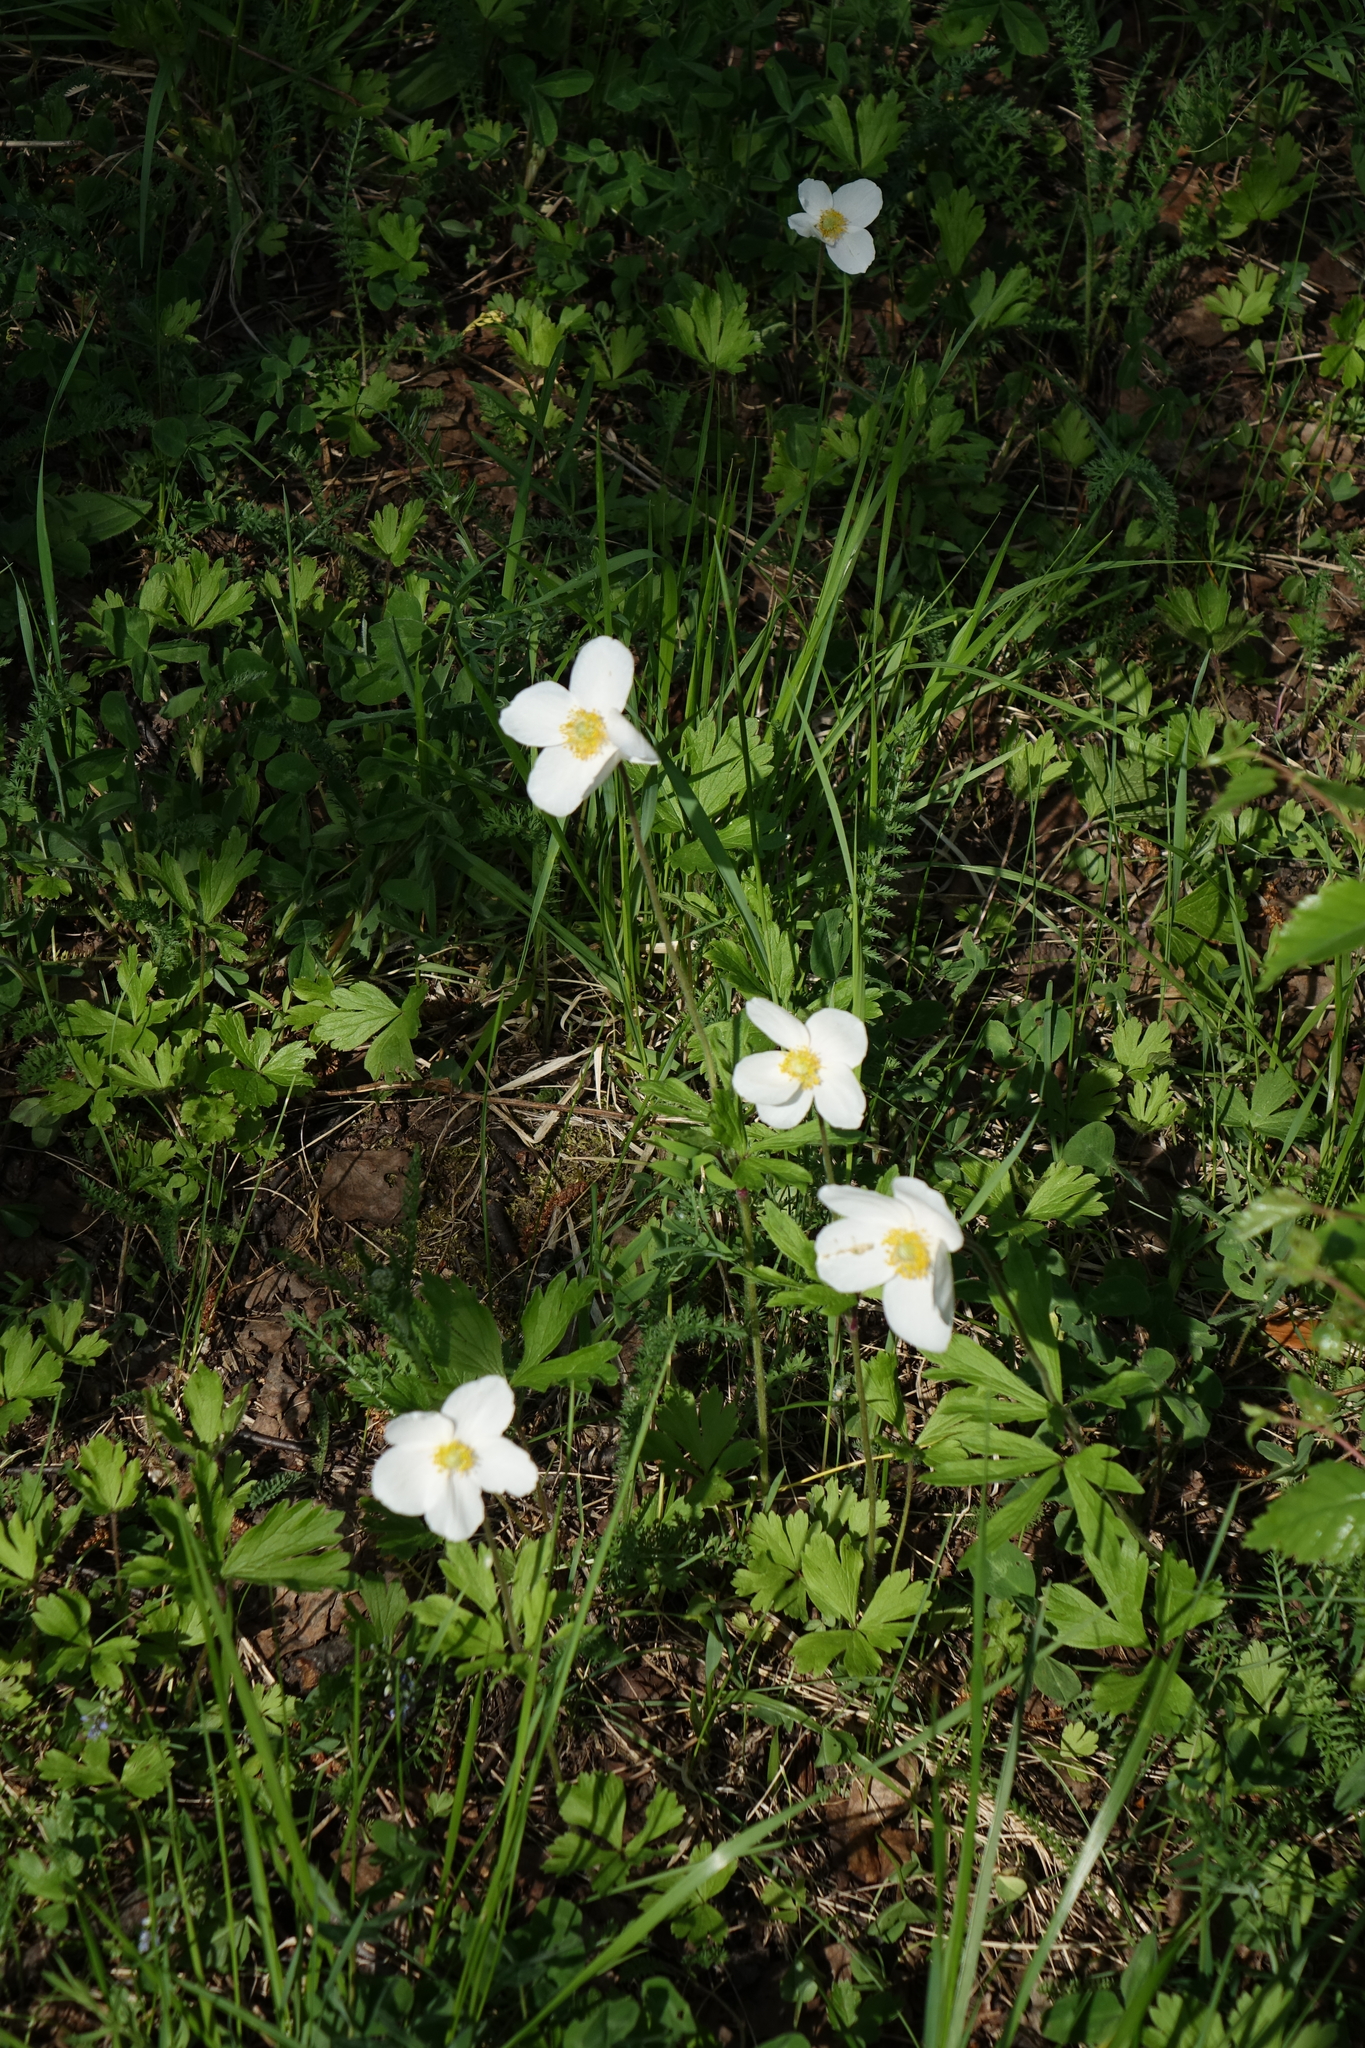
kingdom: Plantae
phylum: Tracheophyta
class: Magnoliopsida
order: Ranunculales
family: Ranunculaceae
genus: Anemone
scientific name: Anemone sylvestris
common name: Snowdrop anemone
